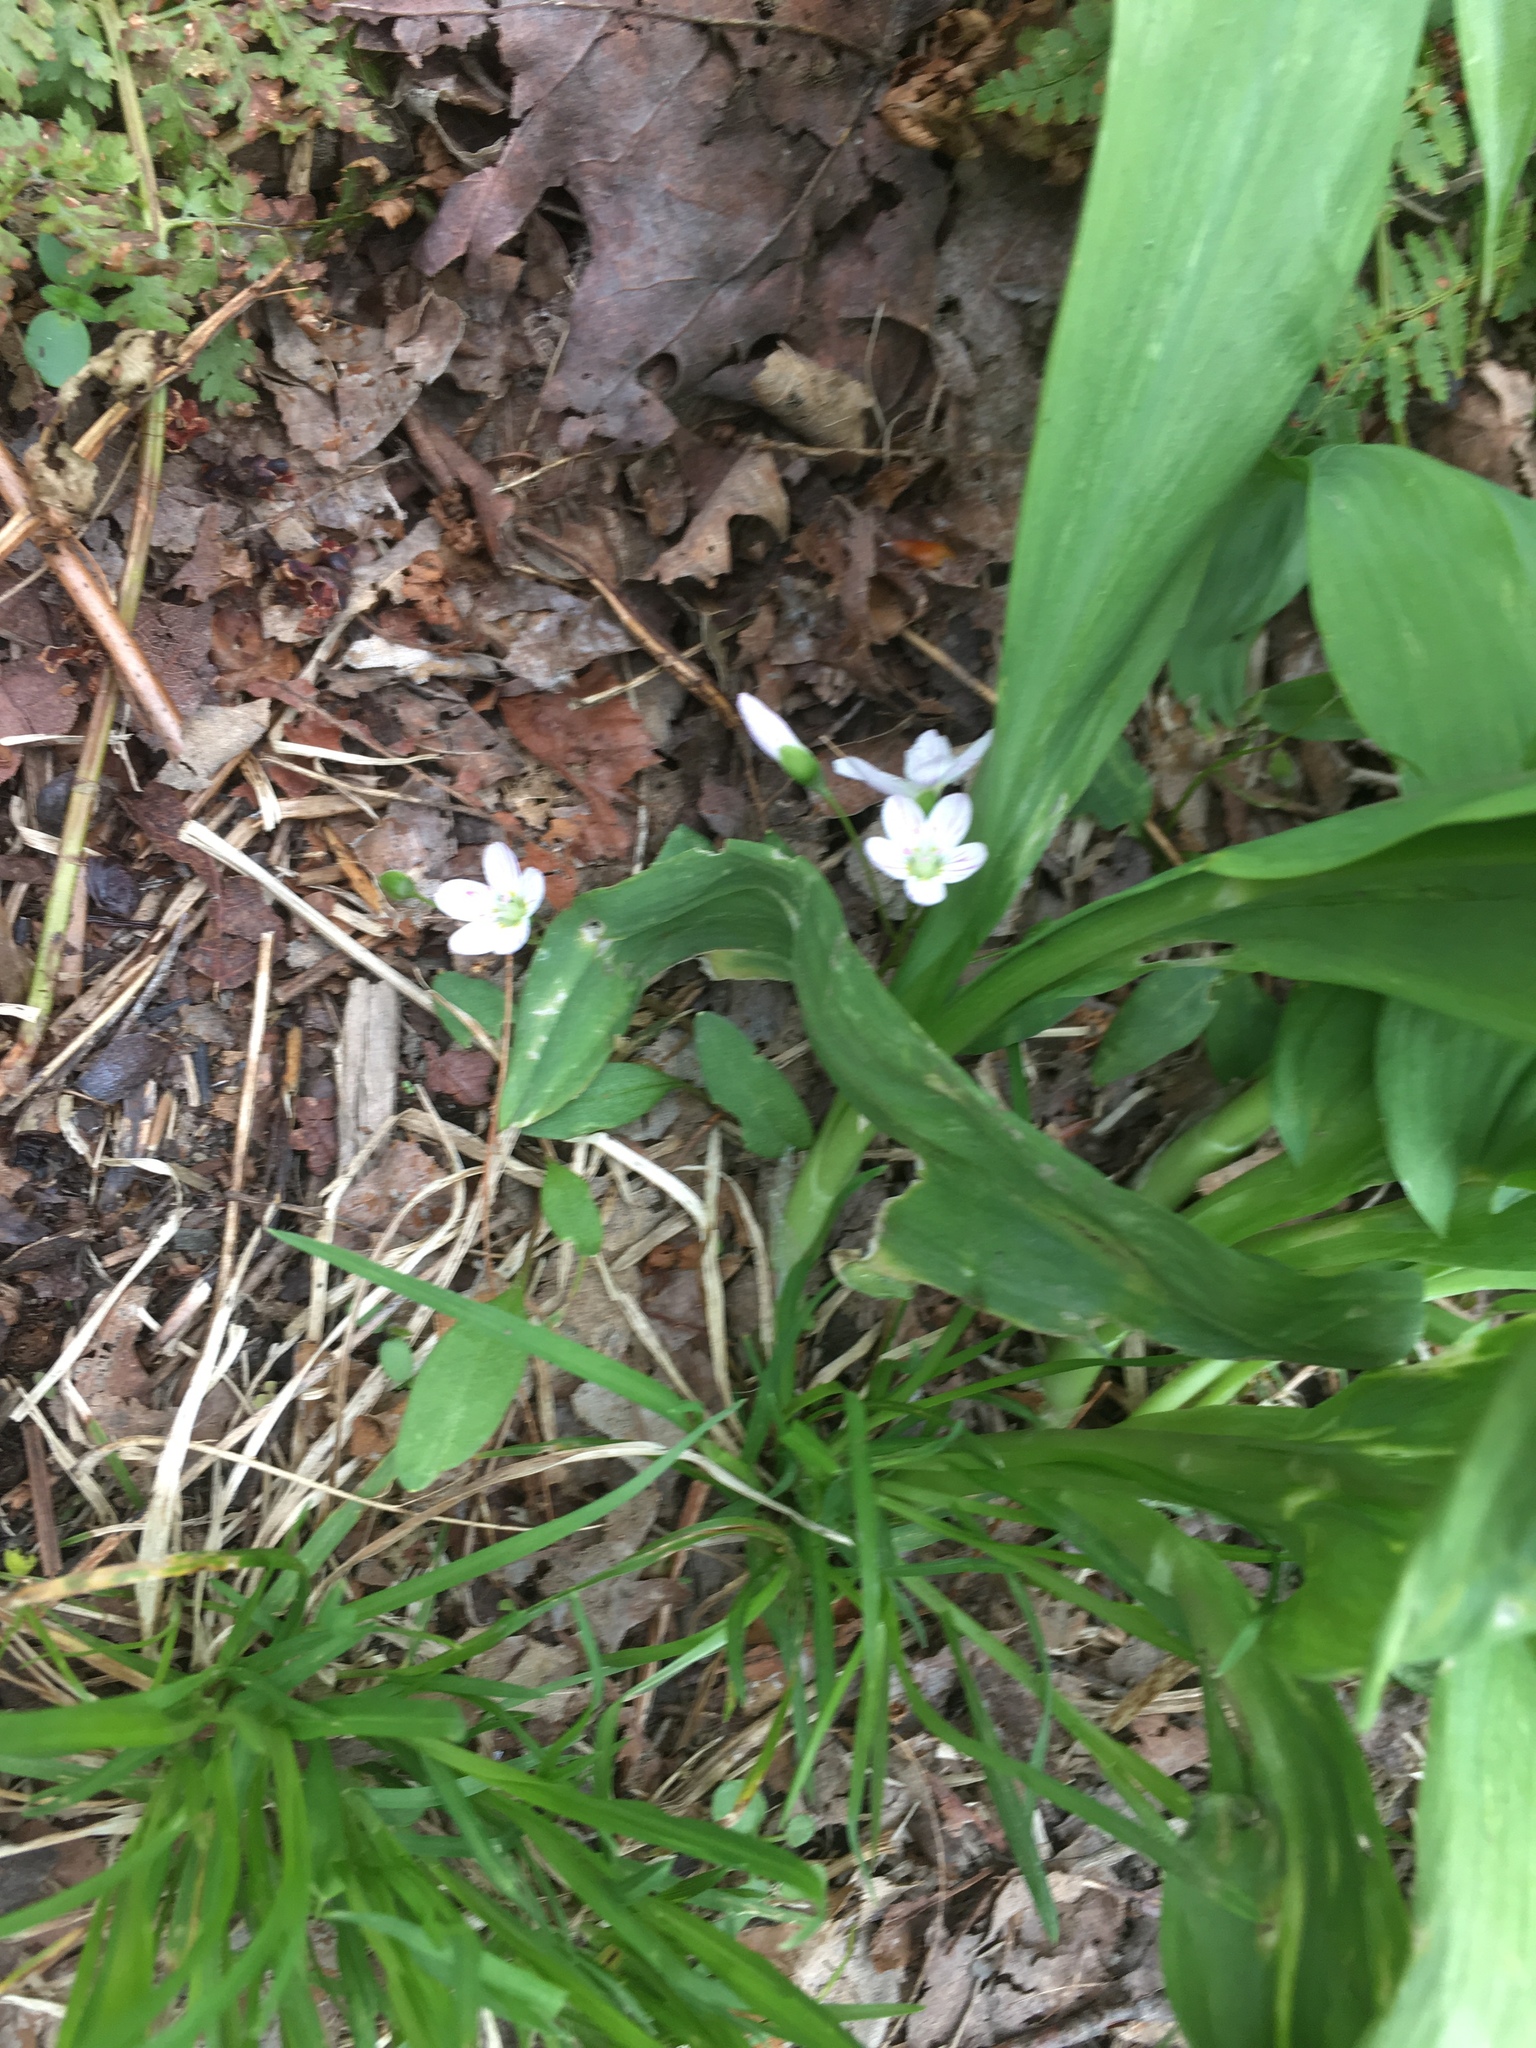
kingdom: Plantae
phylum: Tracheophyta
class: Magnoliopsida
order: Caryophyllales
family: Montiaceae
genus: Claytonia
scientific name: Claytonia caroliniana
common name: Carolina spring beauty
